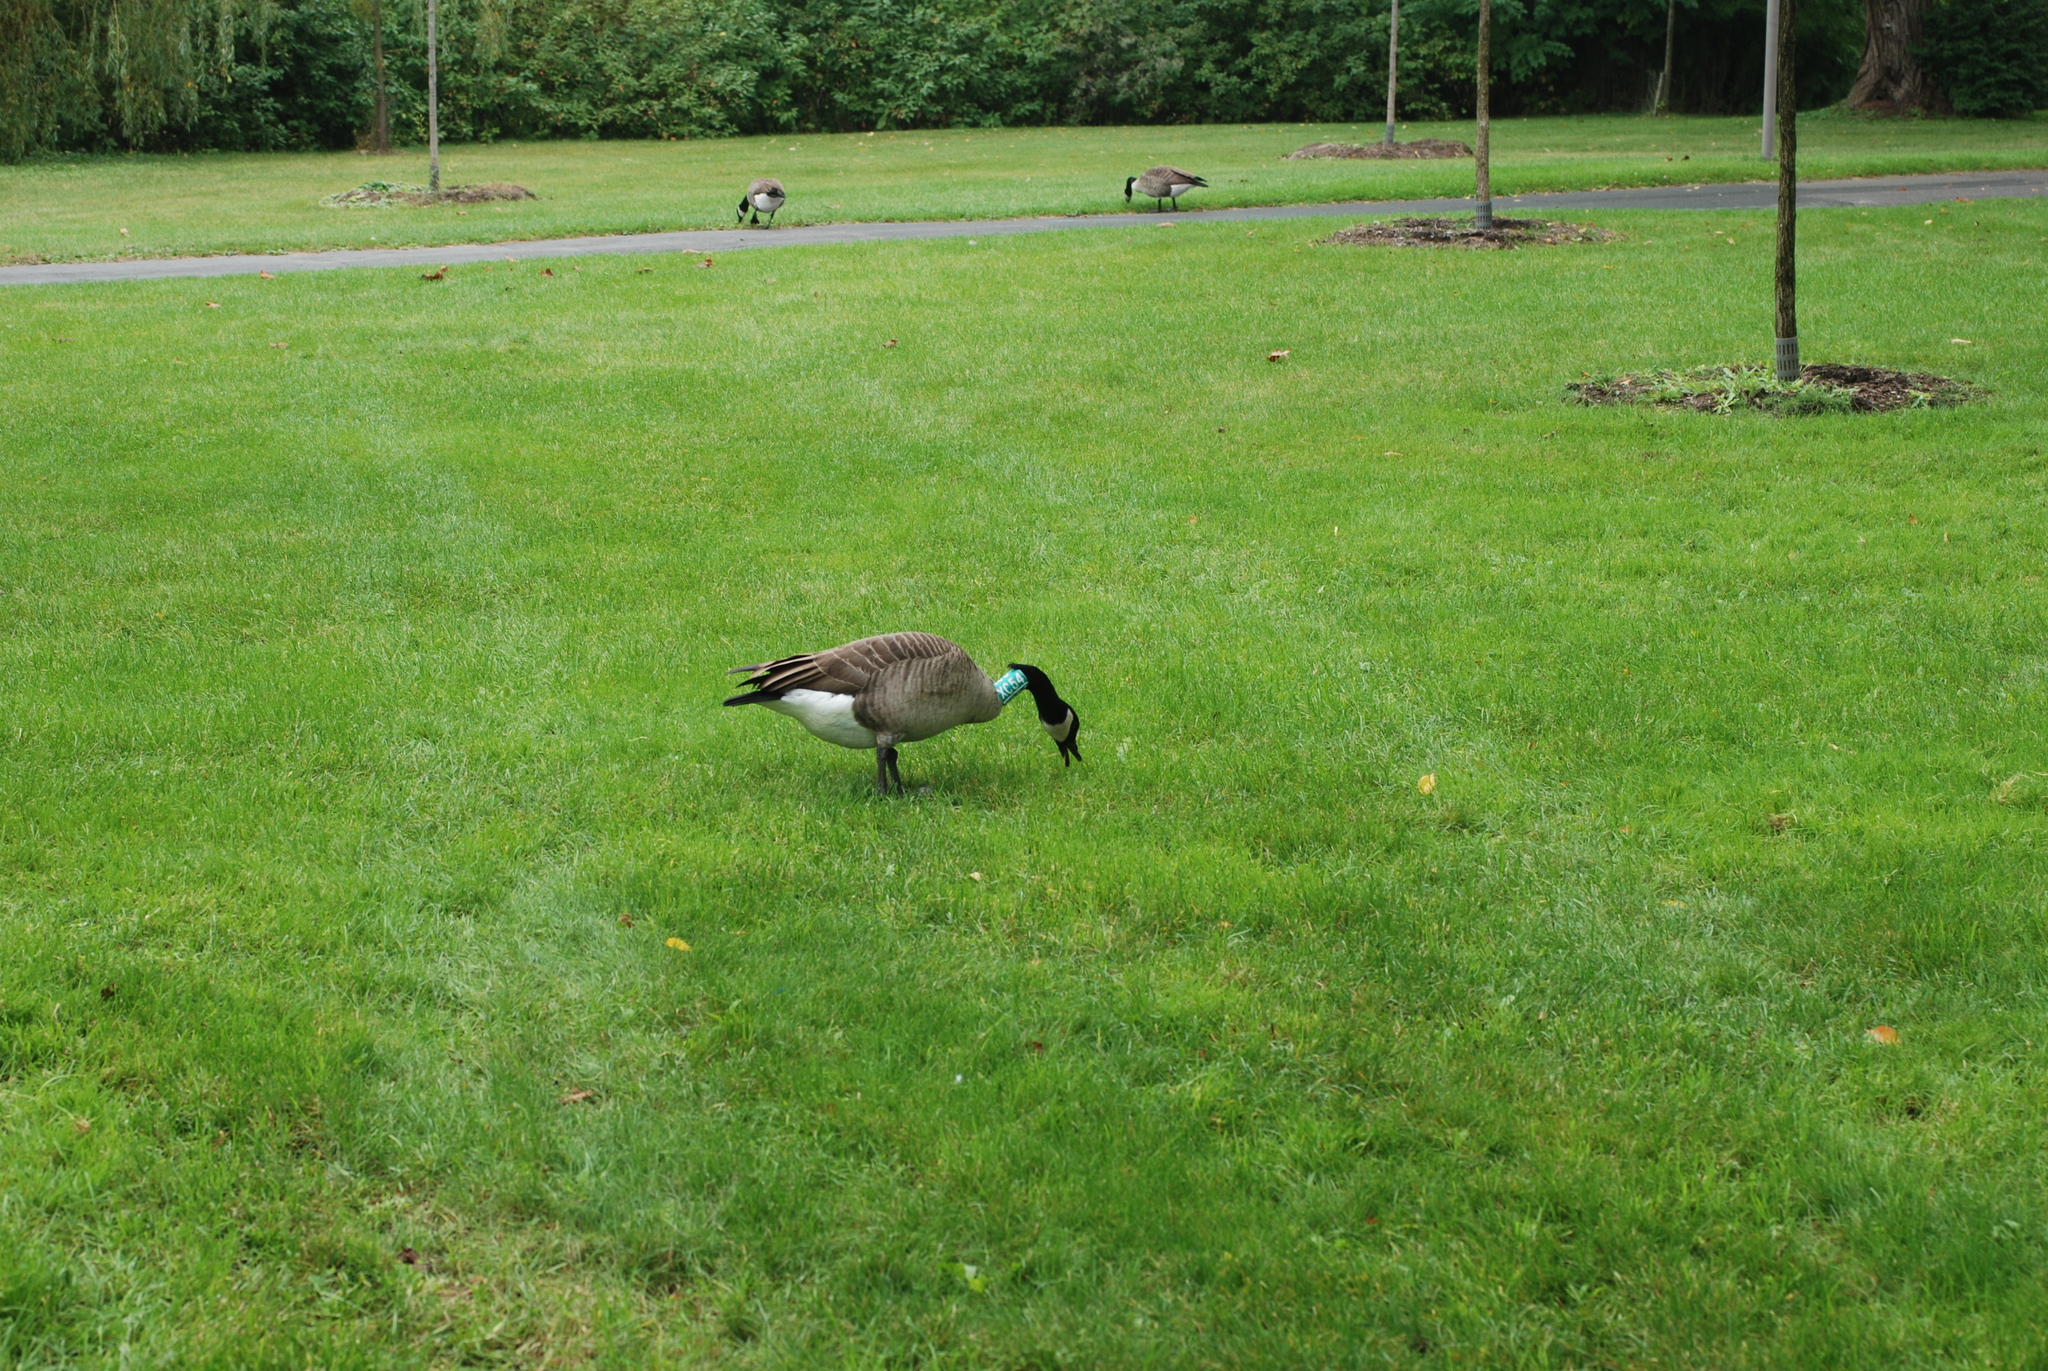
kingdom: Animalia
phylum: Chordata
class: Aves
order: Anseriformes
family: Anatidae
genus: Branta
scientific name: Branta canadensis
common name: Canada goose
